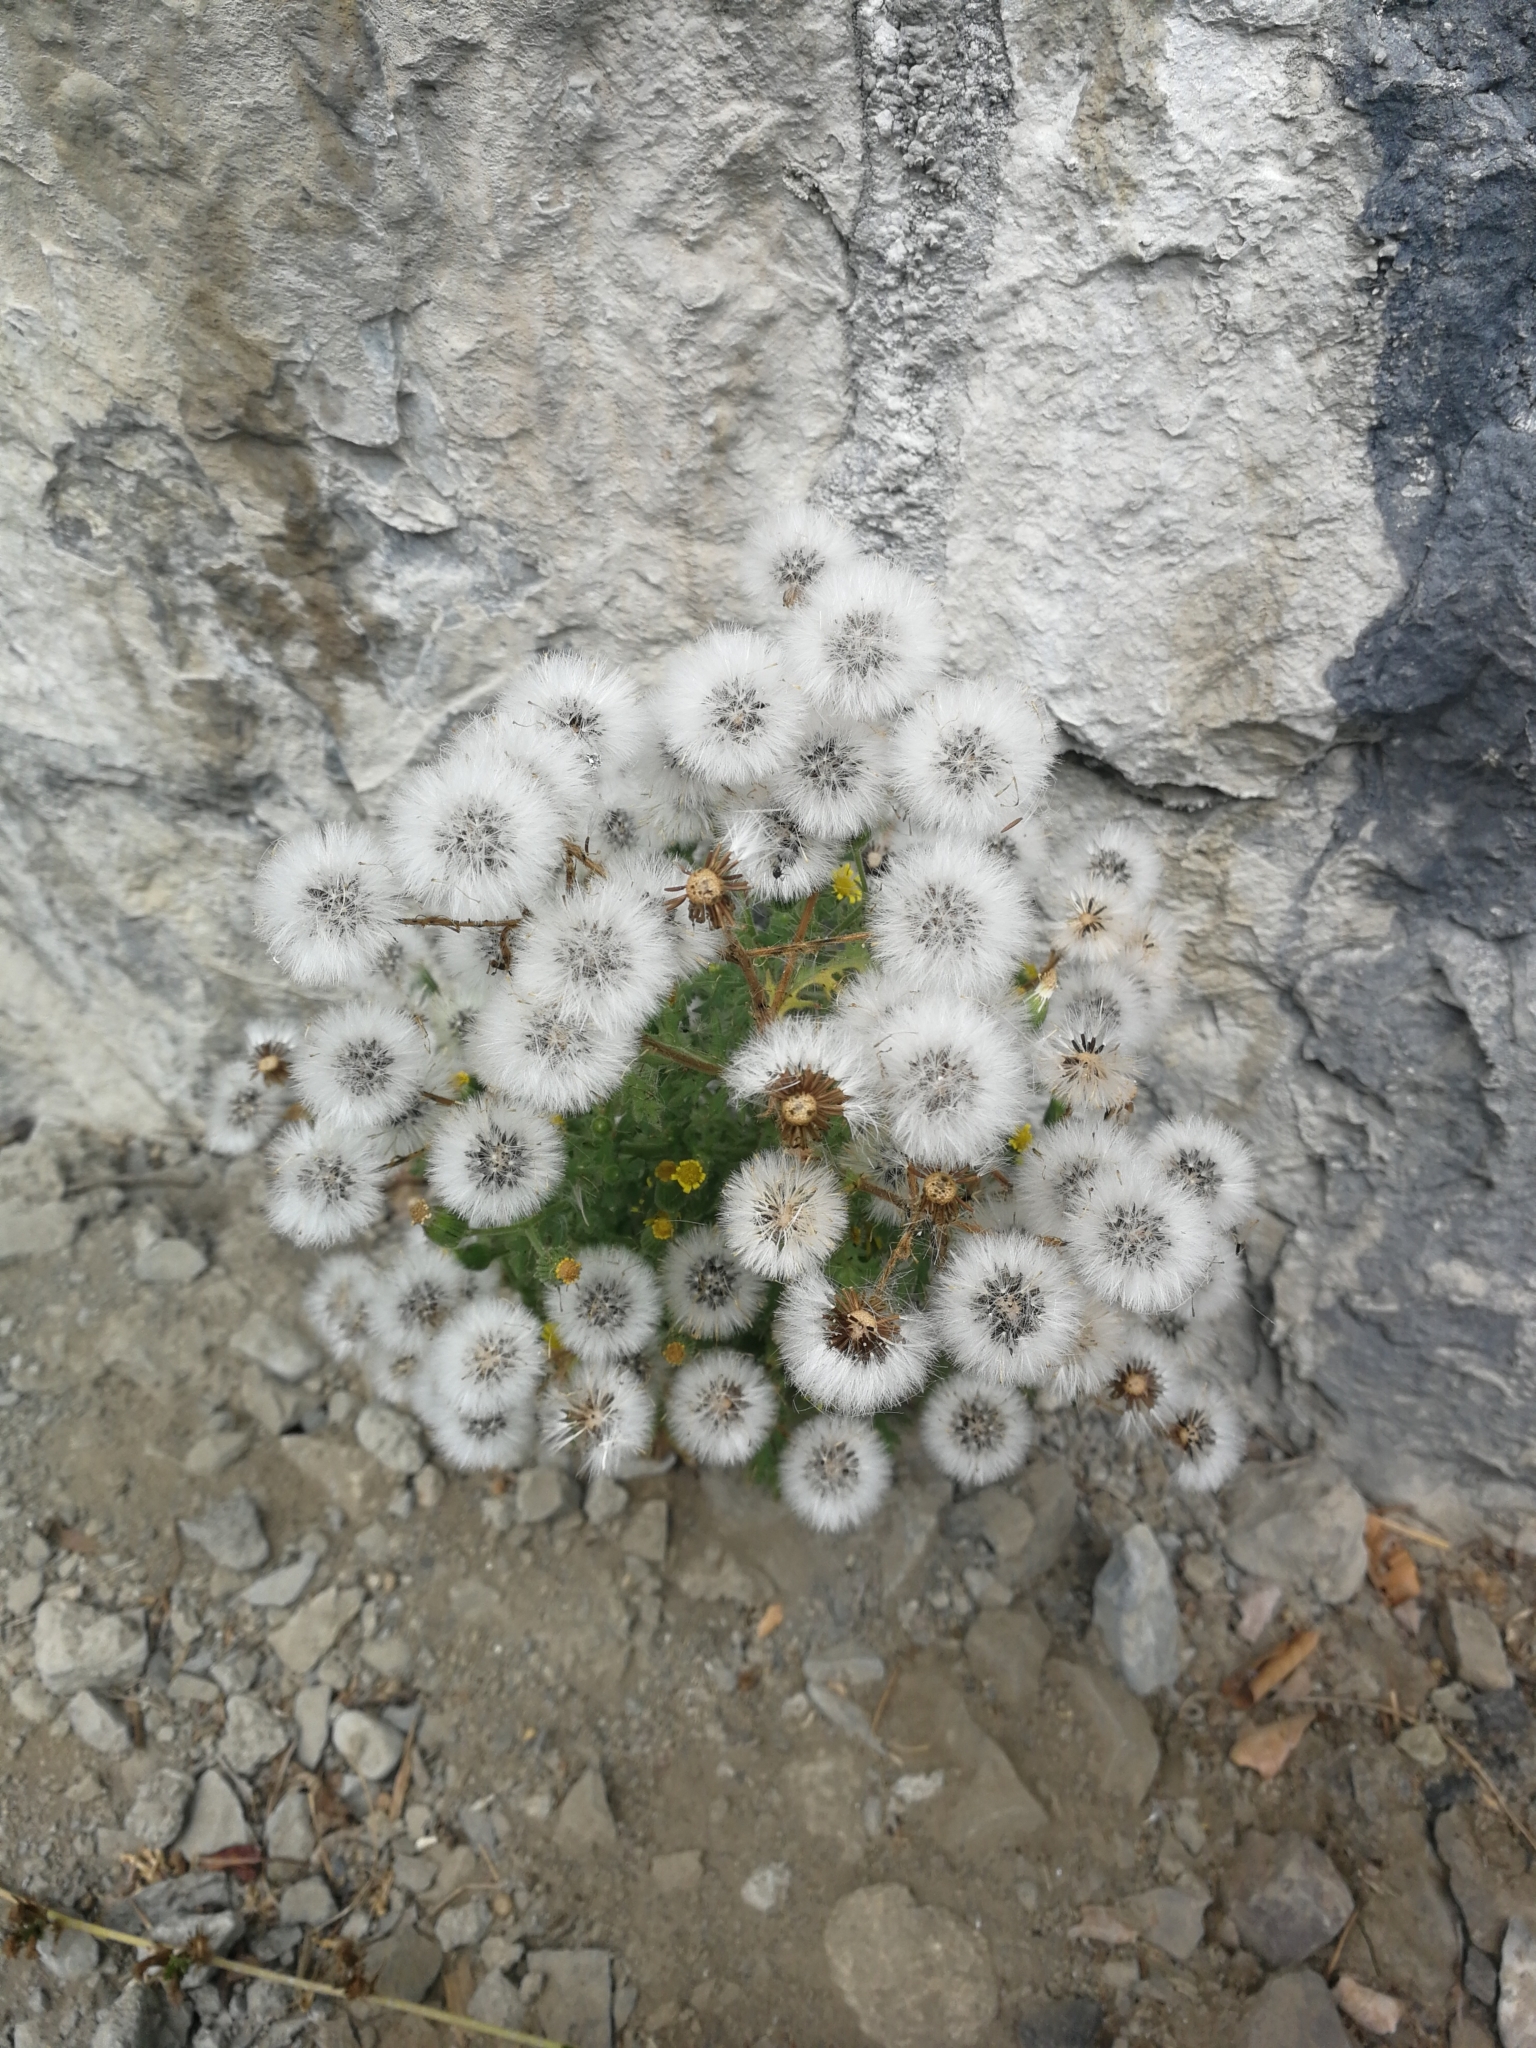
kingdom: Plantae
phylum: Tracheophyta
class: Magnoliopsida
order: Asterales
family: Asteraceae
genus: Senecio
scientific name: Senecio viscosus
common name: Sticky groundsel
